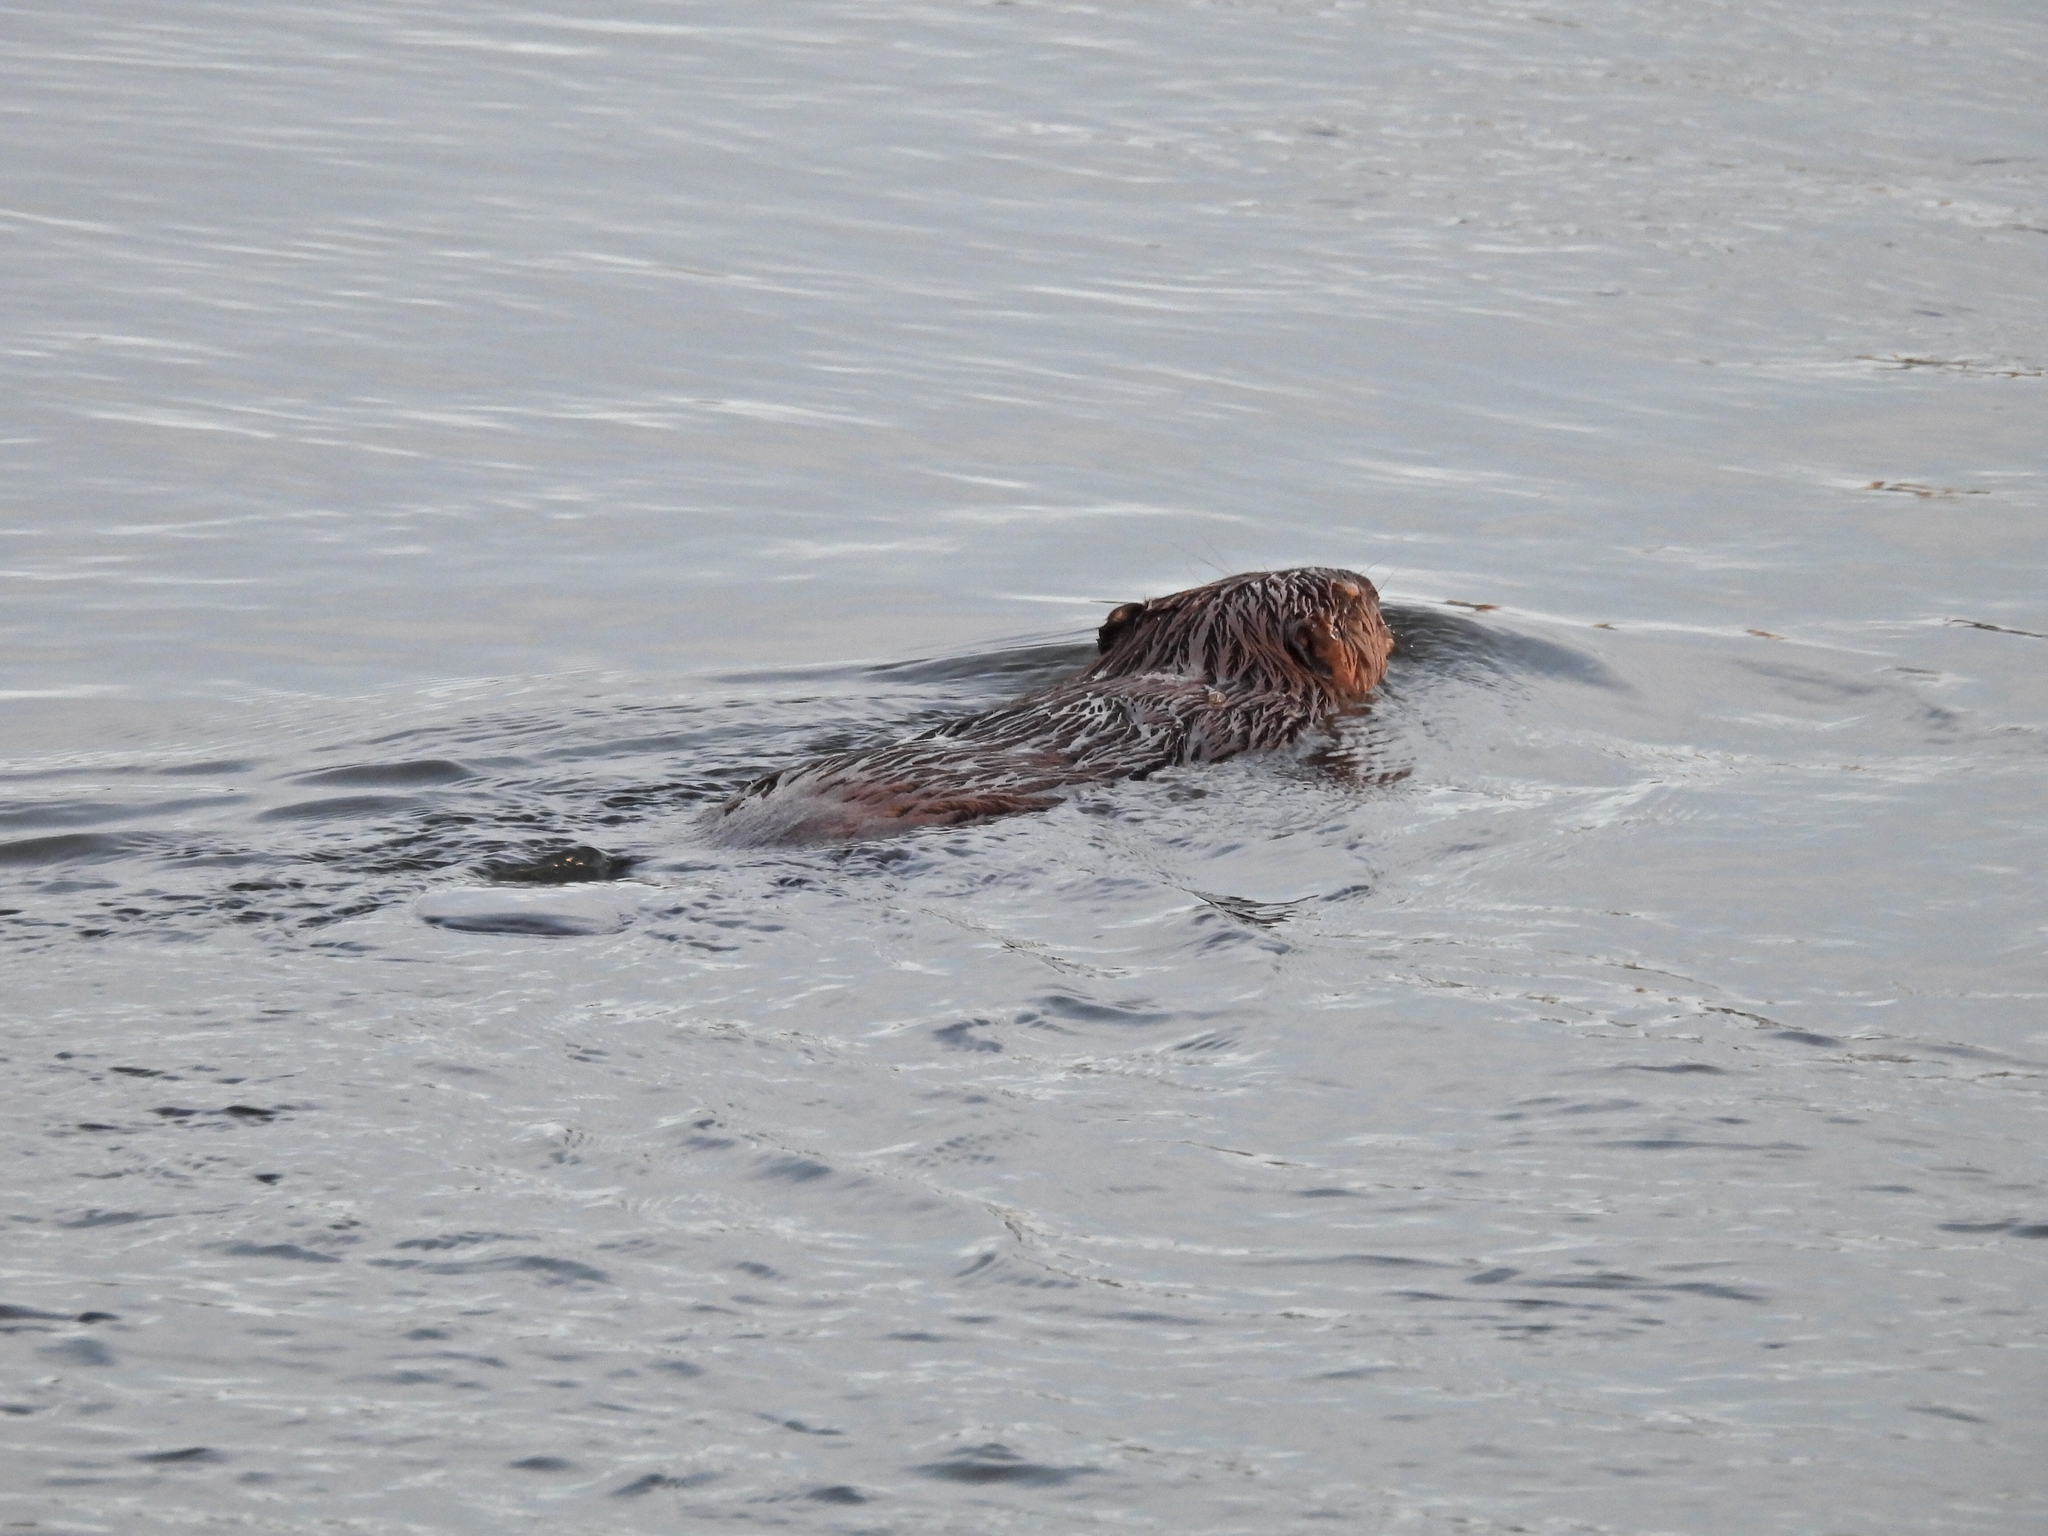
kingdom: Animalia
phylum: Chordata
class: Mammalia
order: Rodentia
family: Castoridae
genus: Castor
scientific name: Castor canadensis
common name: American beaver
